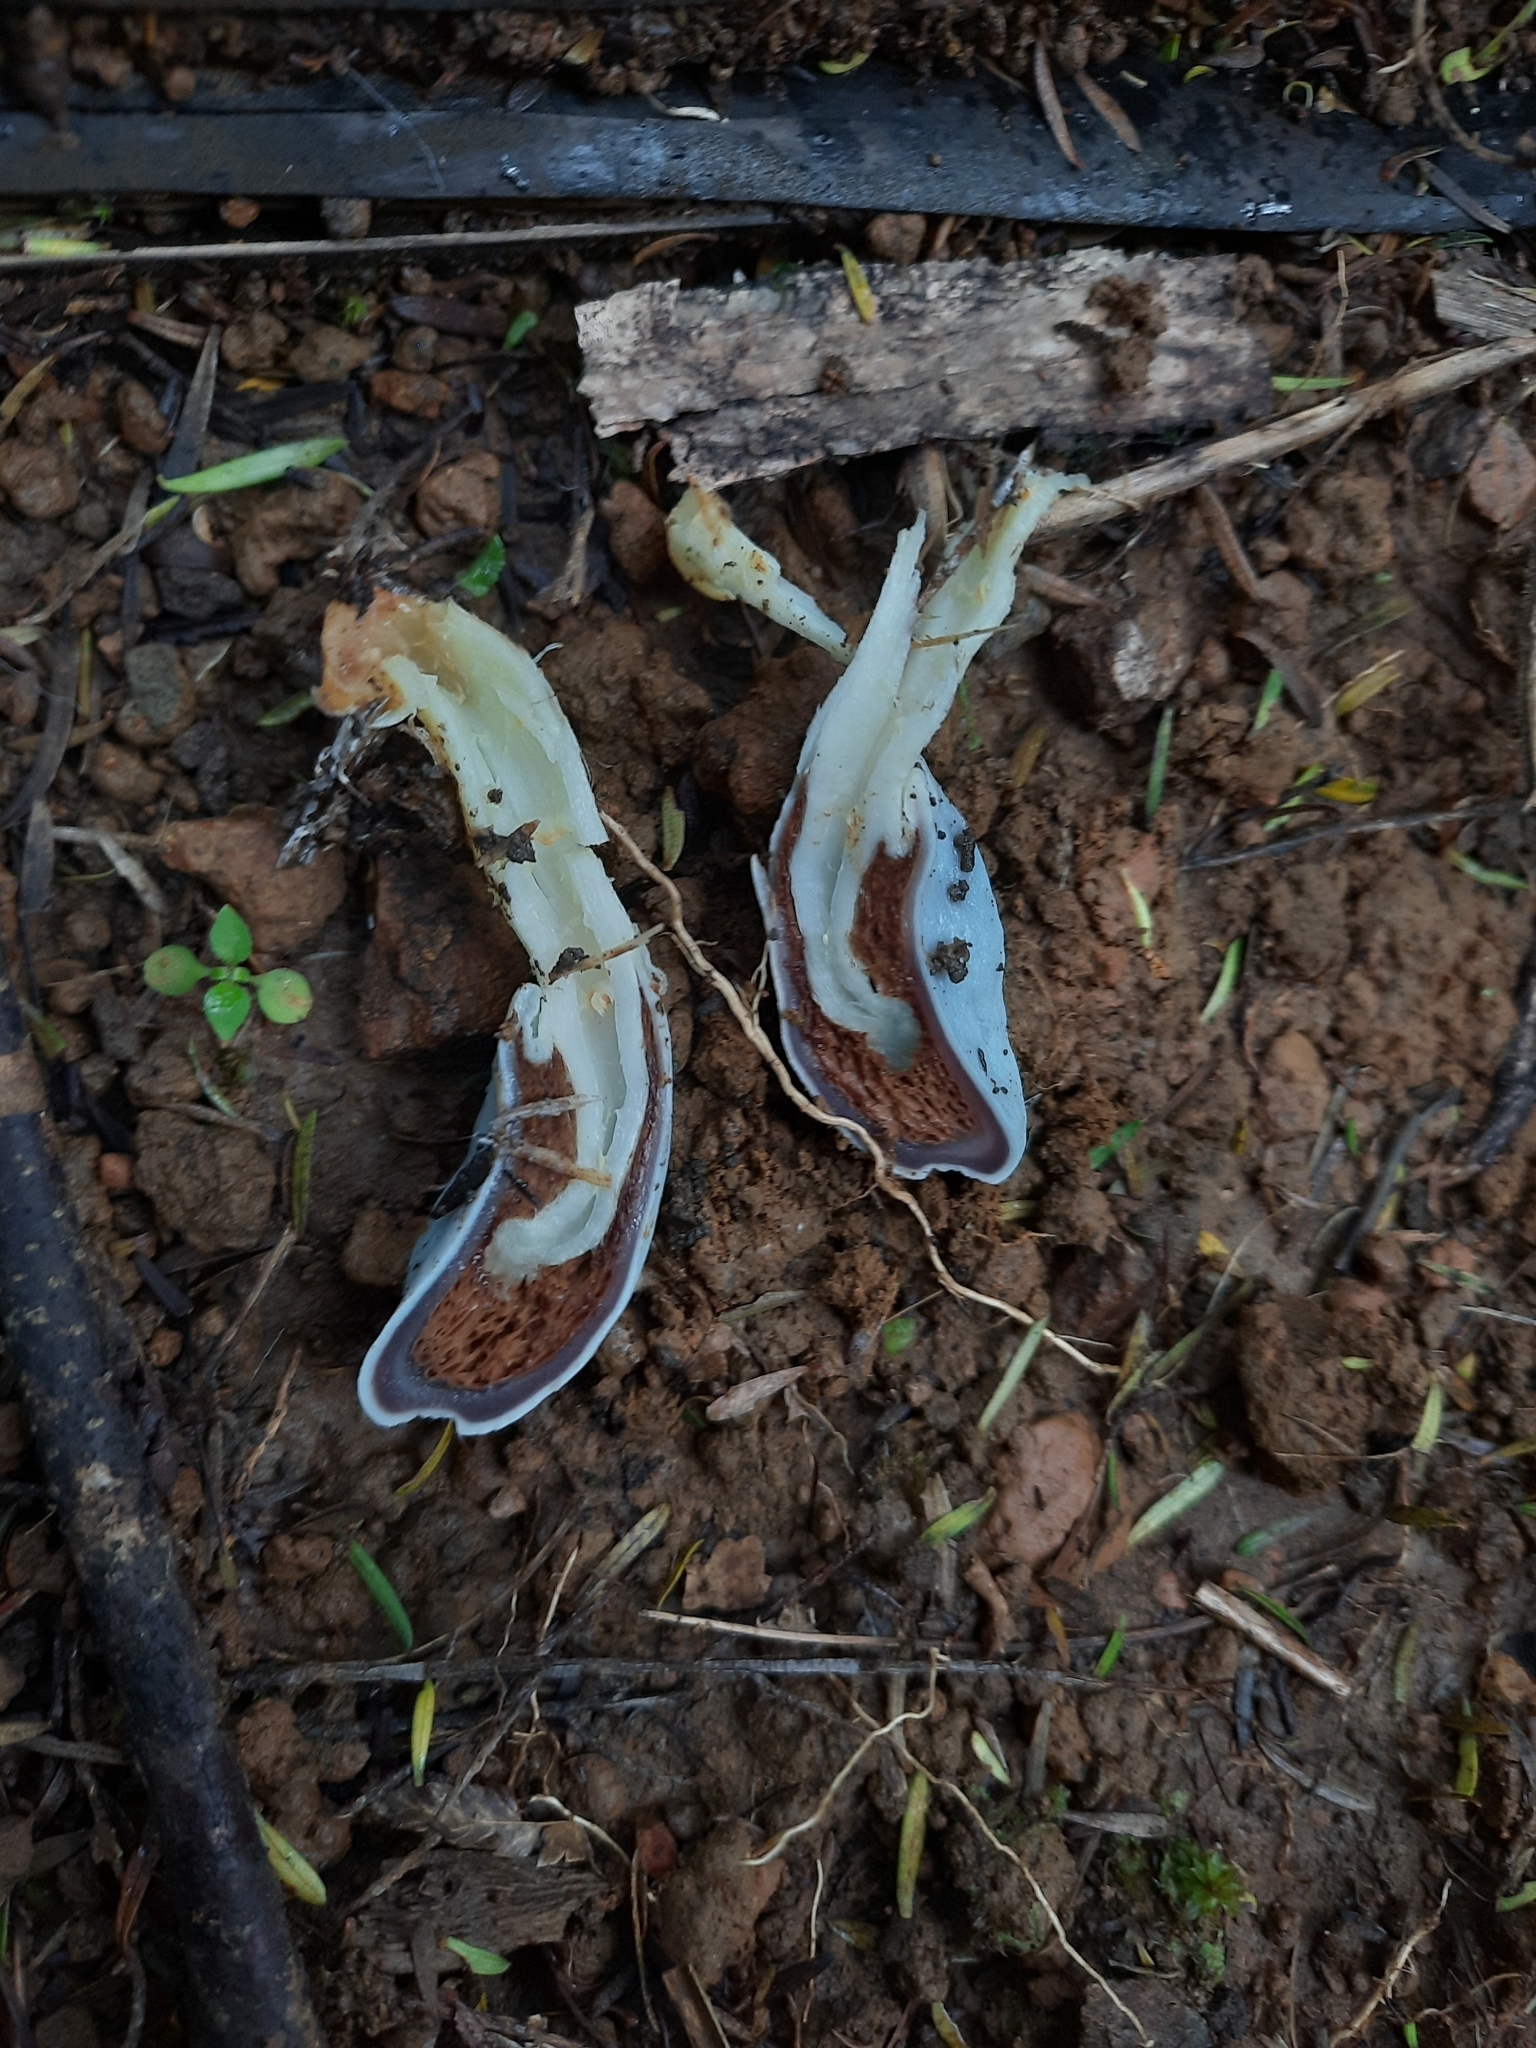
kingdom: Fungi
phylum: Basidiomycota
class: Agaricomycetes
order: Agaricales
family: Agaricaceae
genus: Clavogaster
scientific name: Clavogaster virescens
